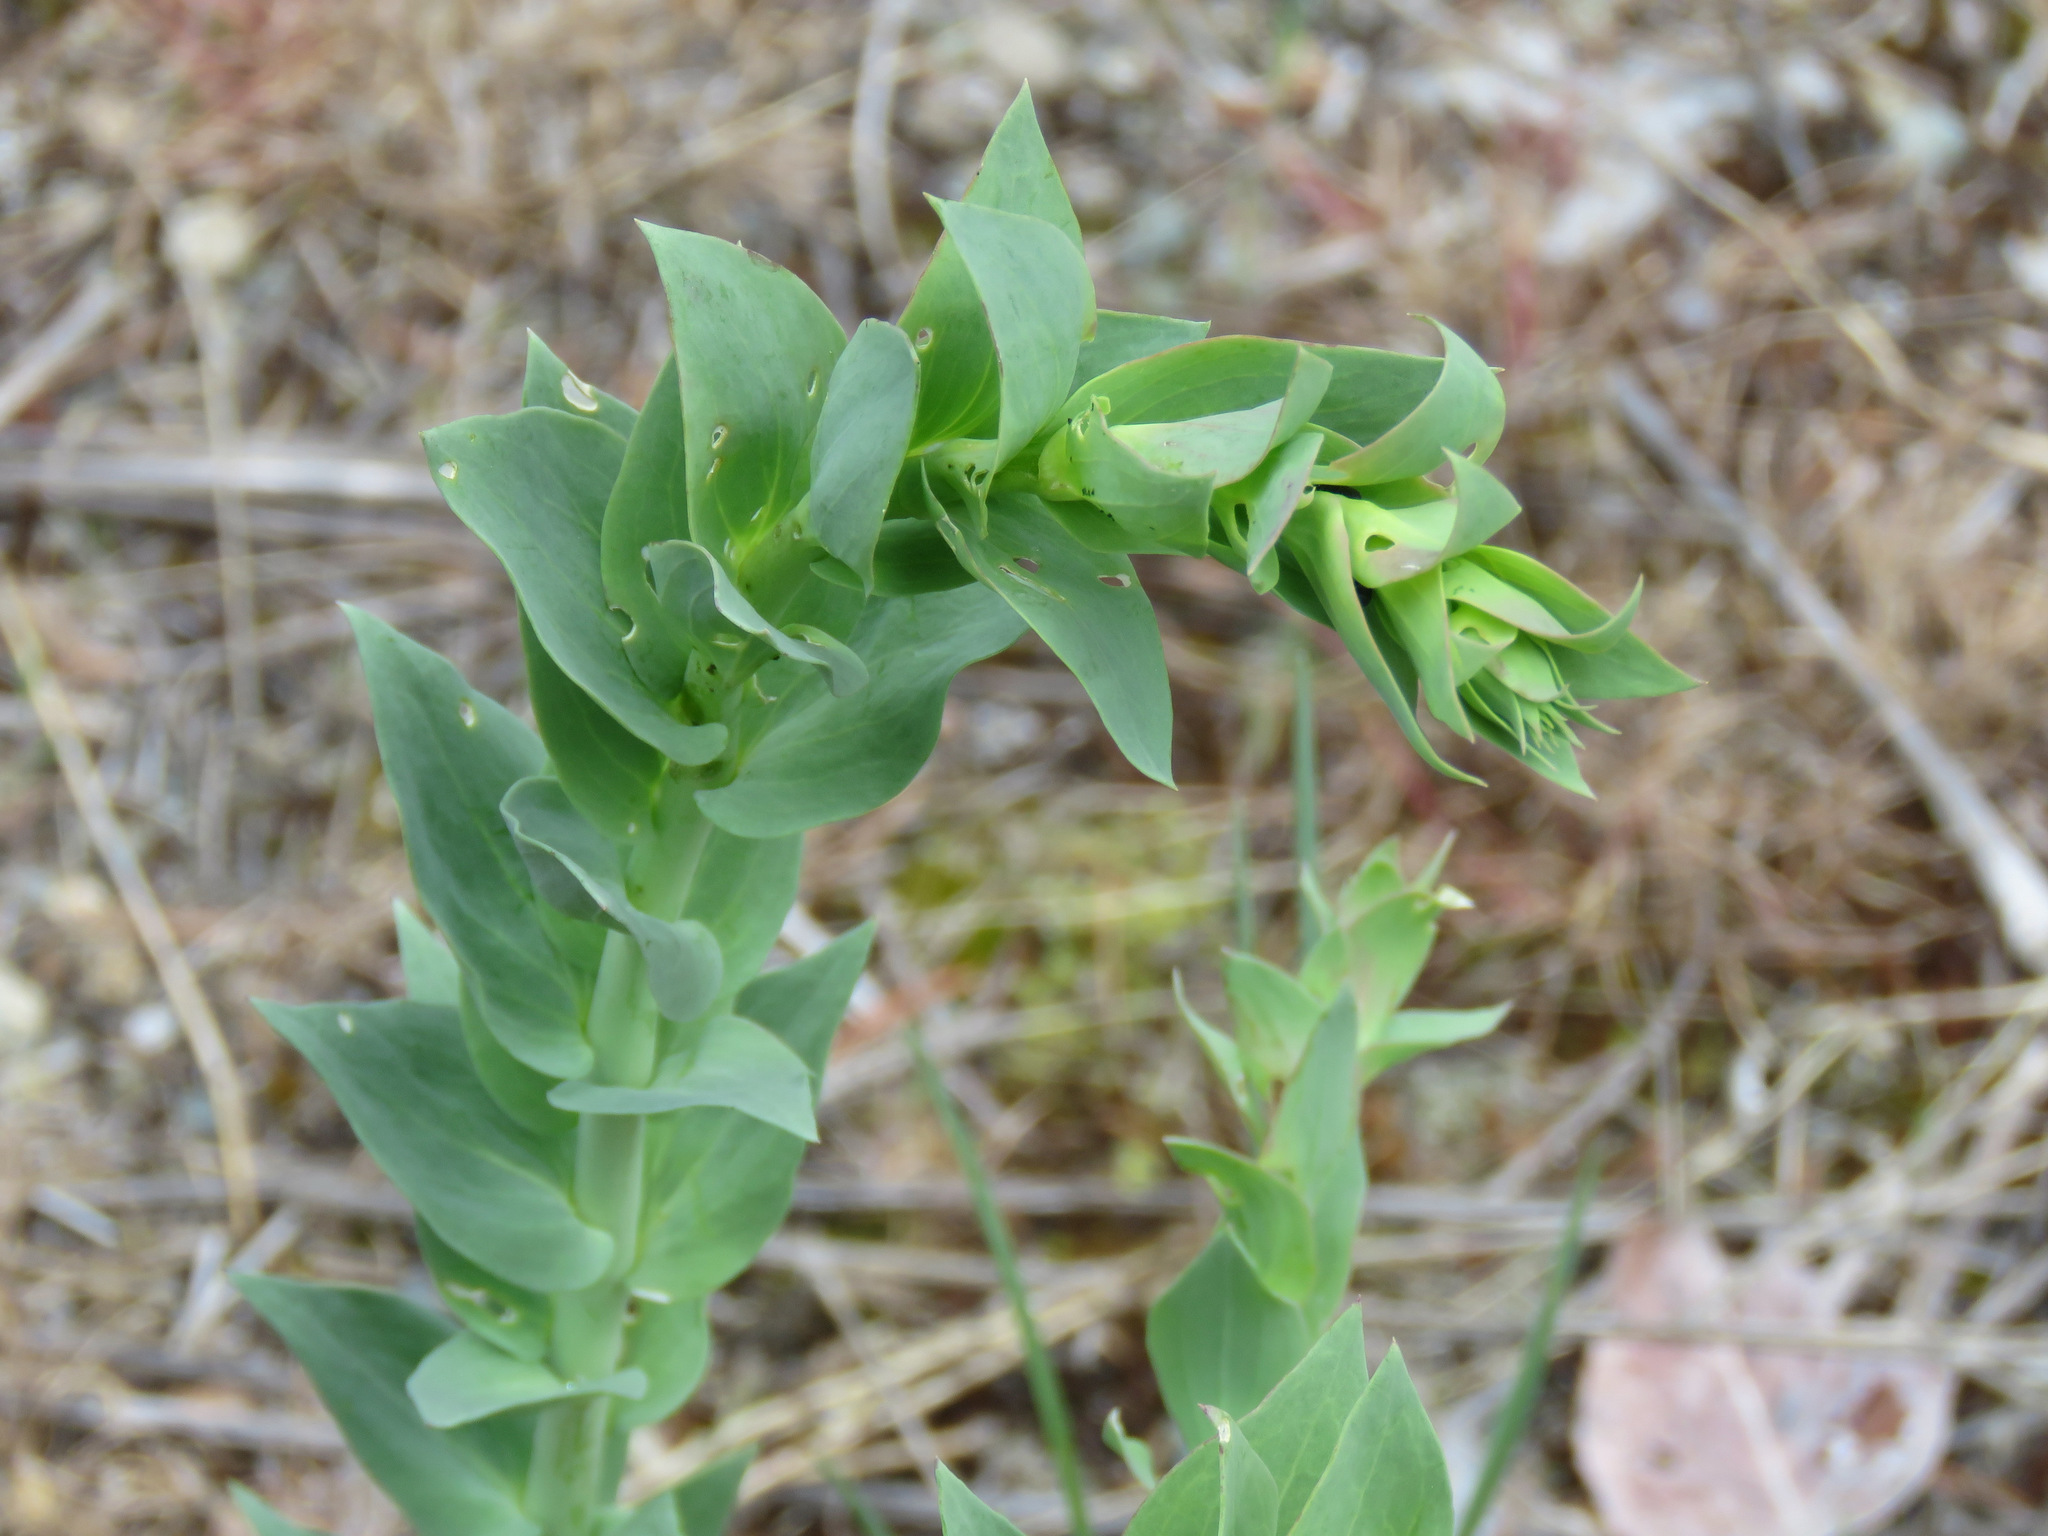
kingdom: Plantae
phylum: Tracheophyta
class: Magnoliopsida
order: Lamiales
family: Plantaginaceae
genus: Linaria
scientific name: Linaria dalmatica
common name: Dalmatian toadflax
